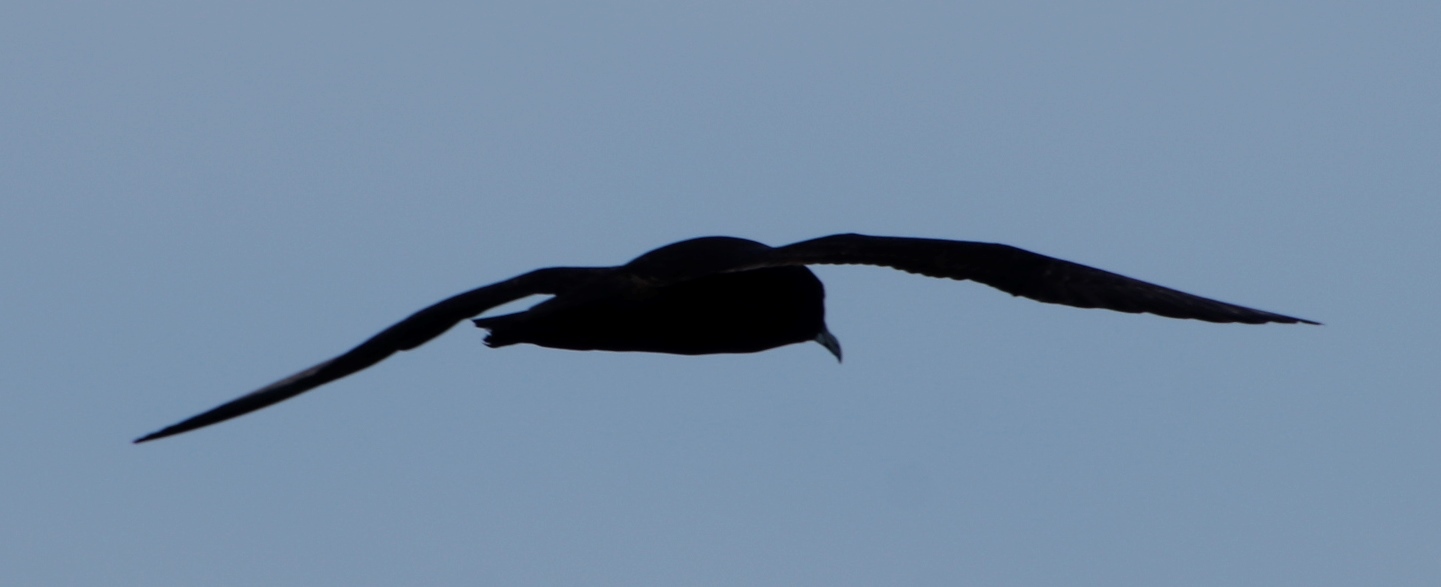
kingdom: Animalia
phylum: Chordata
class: Aves
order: Procellariiformes
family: Procellariidae
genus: Procellaria
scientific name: Procellaria aequinoctialis
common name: White-chinned petrel
